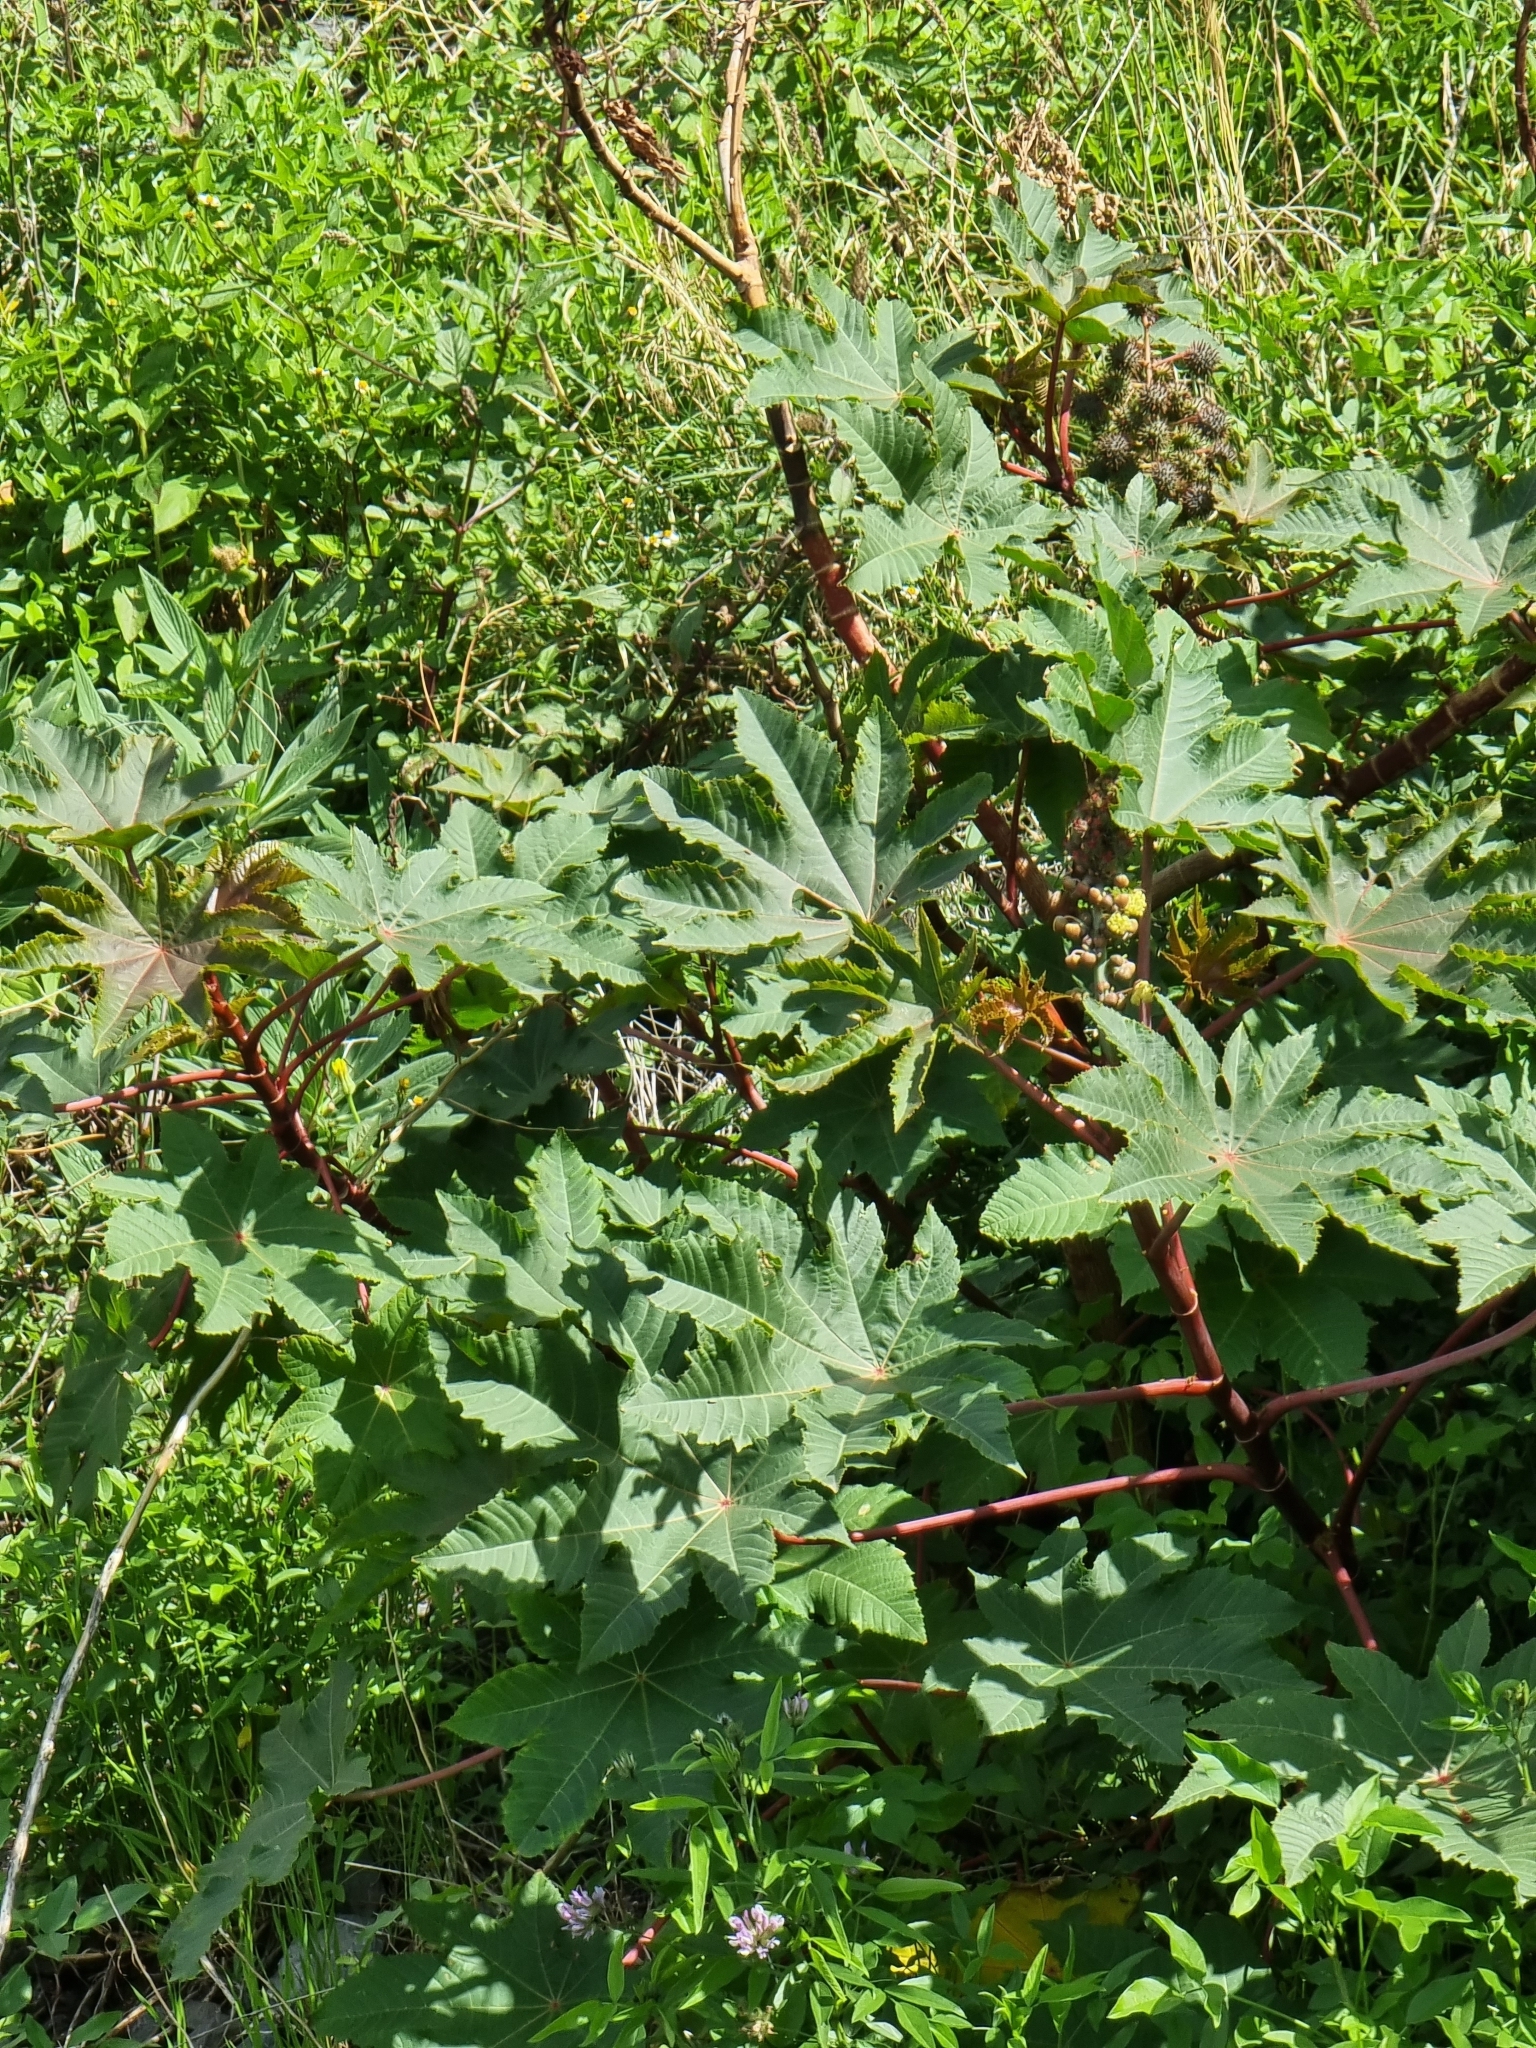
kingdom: Plantae
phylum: Tracheophyta
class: Magnoliopsida
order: Malpighiales
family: Euphorbiaceae
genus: Ricinus
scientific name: Ricinus communis
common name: Castor-oil-plant
